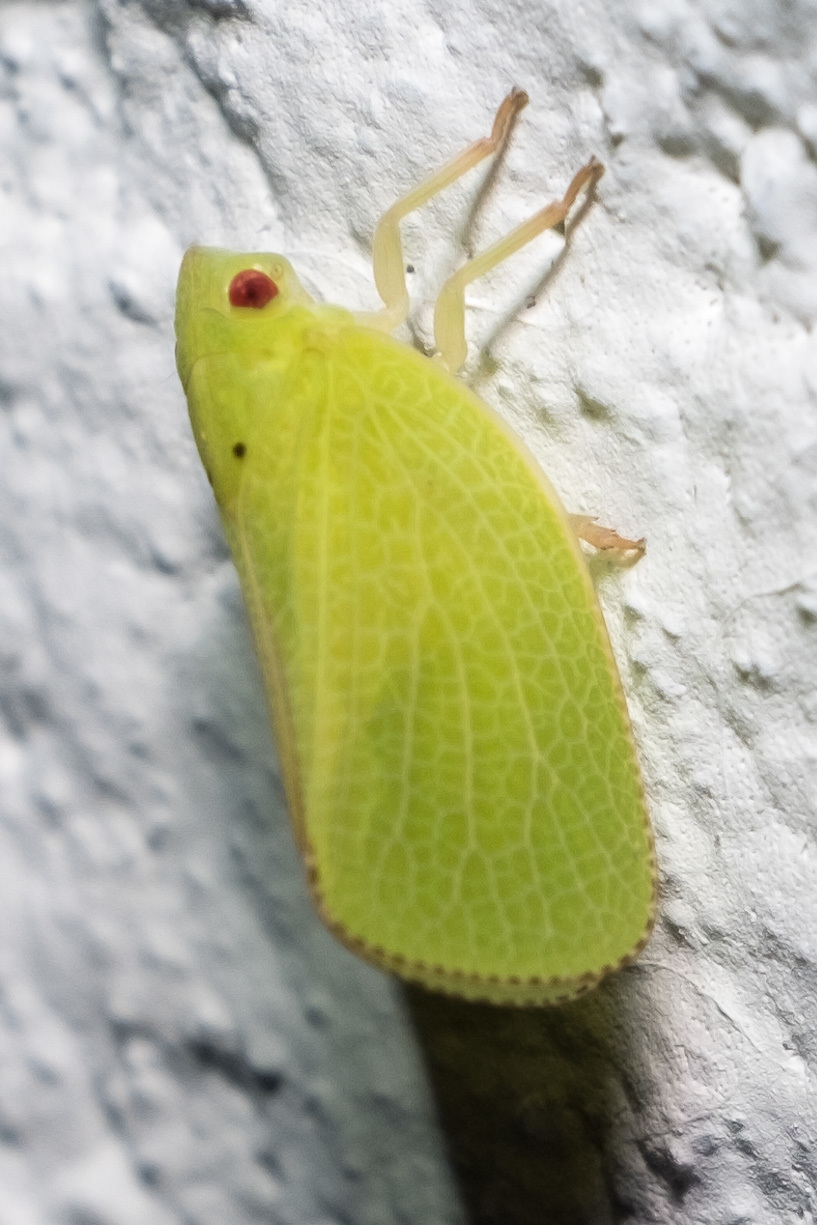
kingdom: Animalia
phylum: Arthropoda
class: Insecta
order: Hemiptera
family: Acanaloniidae
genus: Acanalonia
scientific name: Acanalonia conica
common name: Green cone-headed planthopper
